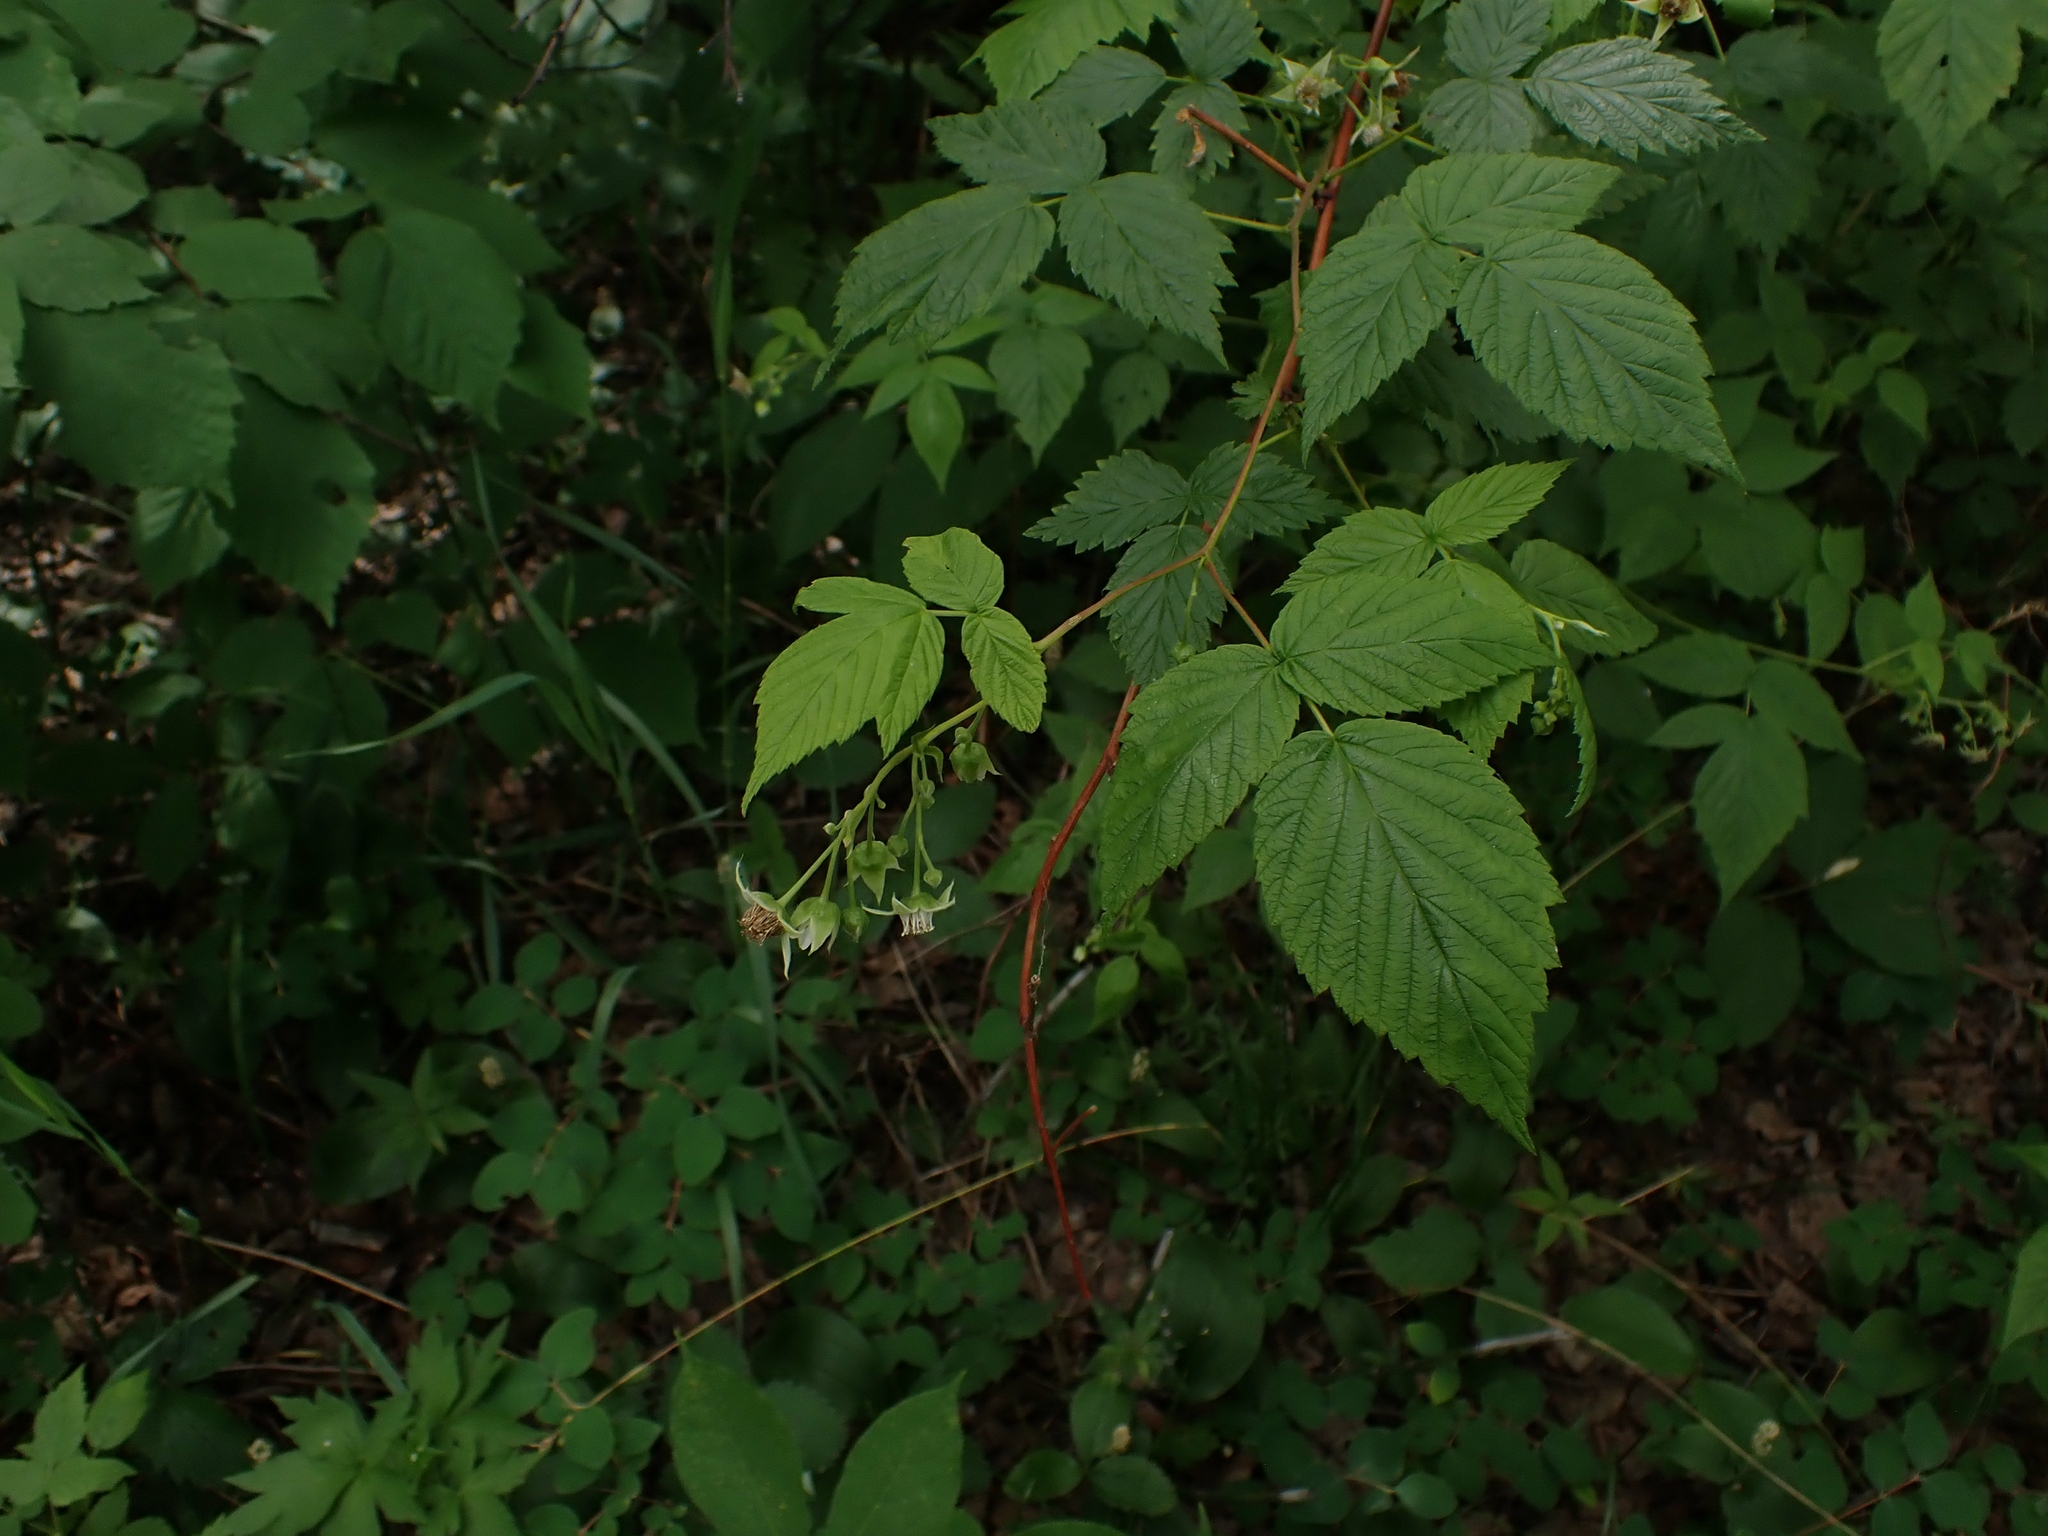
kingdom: Plantae
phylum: Tracheophyta
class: Magnoliopsida
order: Rosales
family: Rosaceae
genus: Rubus
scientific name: Rubus idaeus
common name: Raspberry
